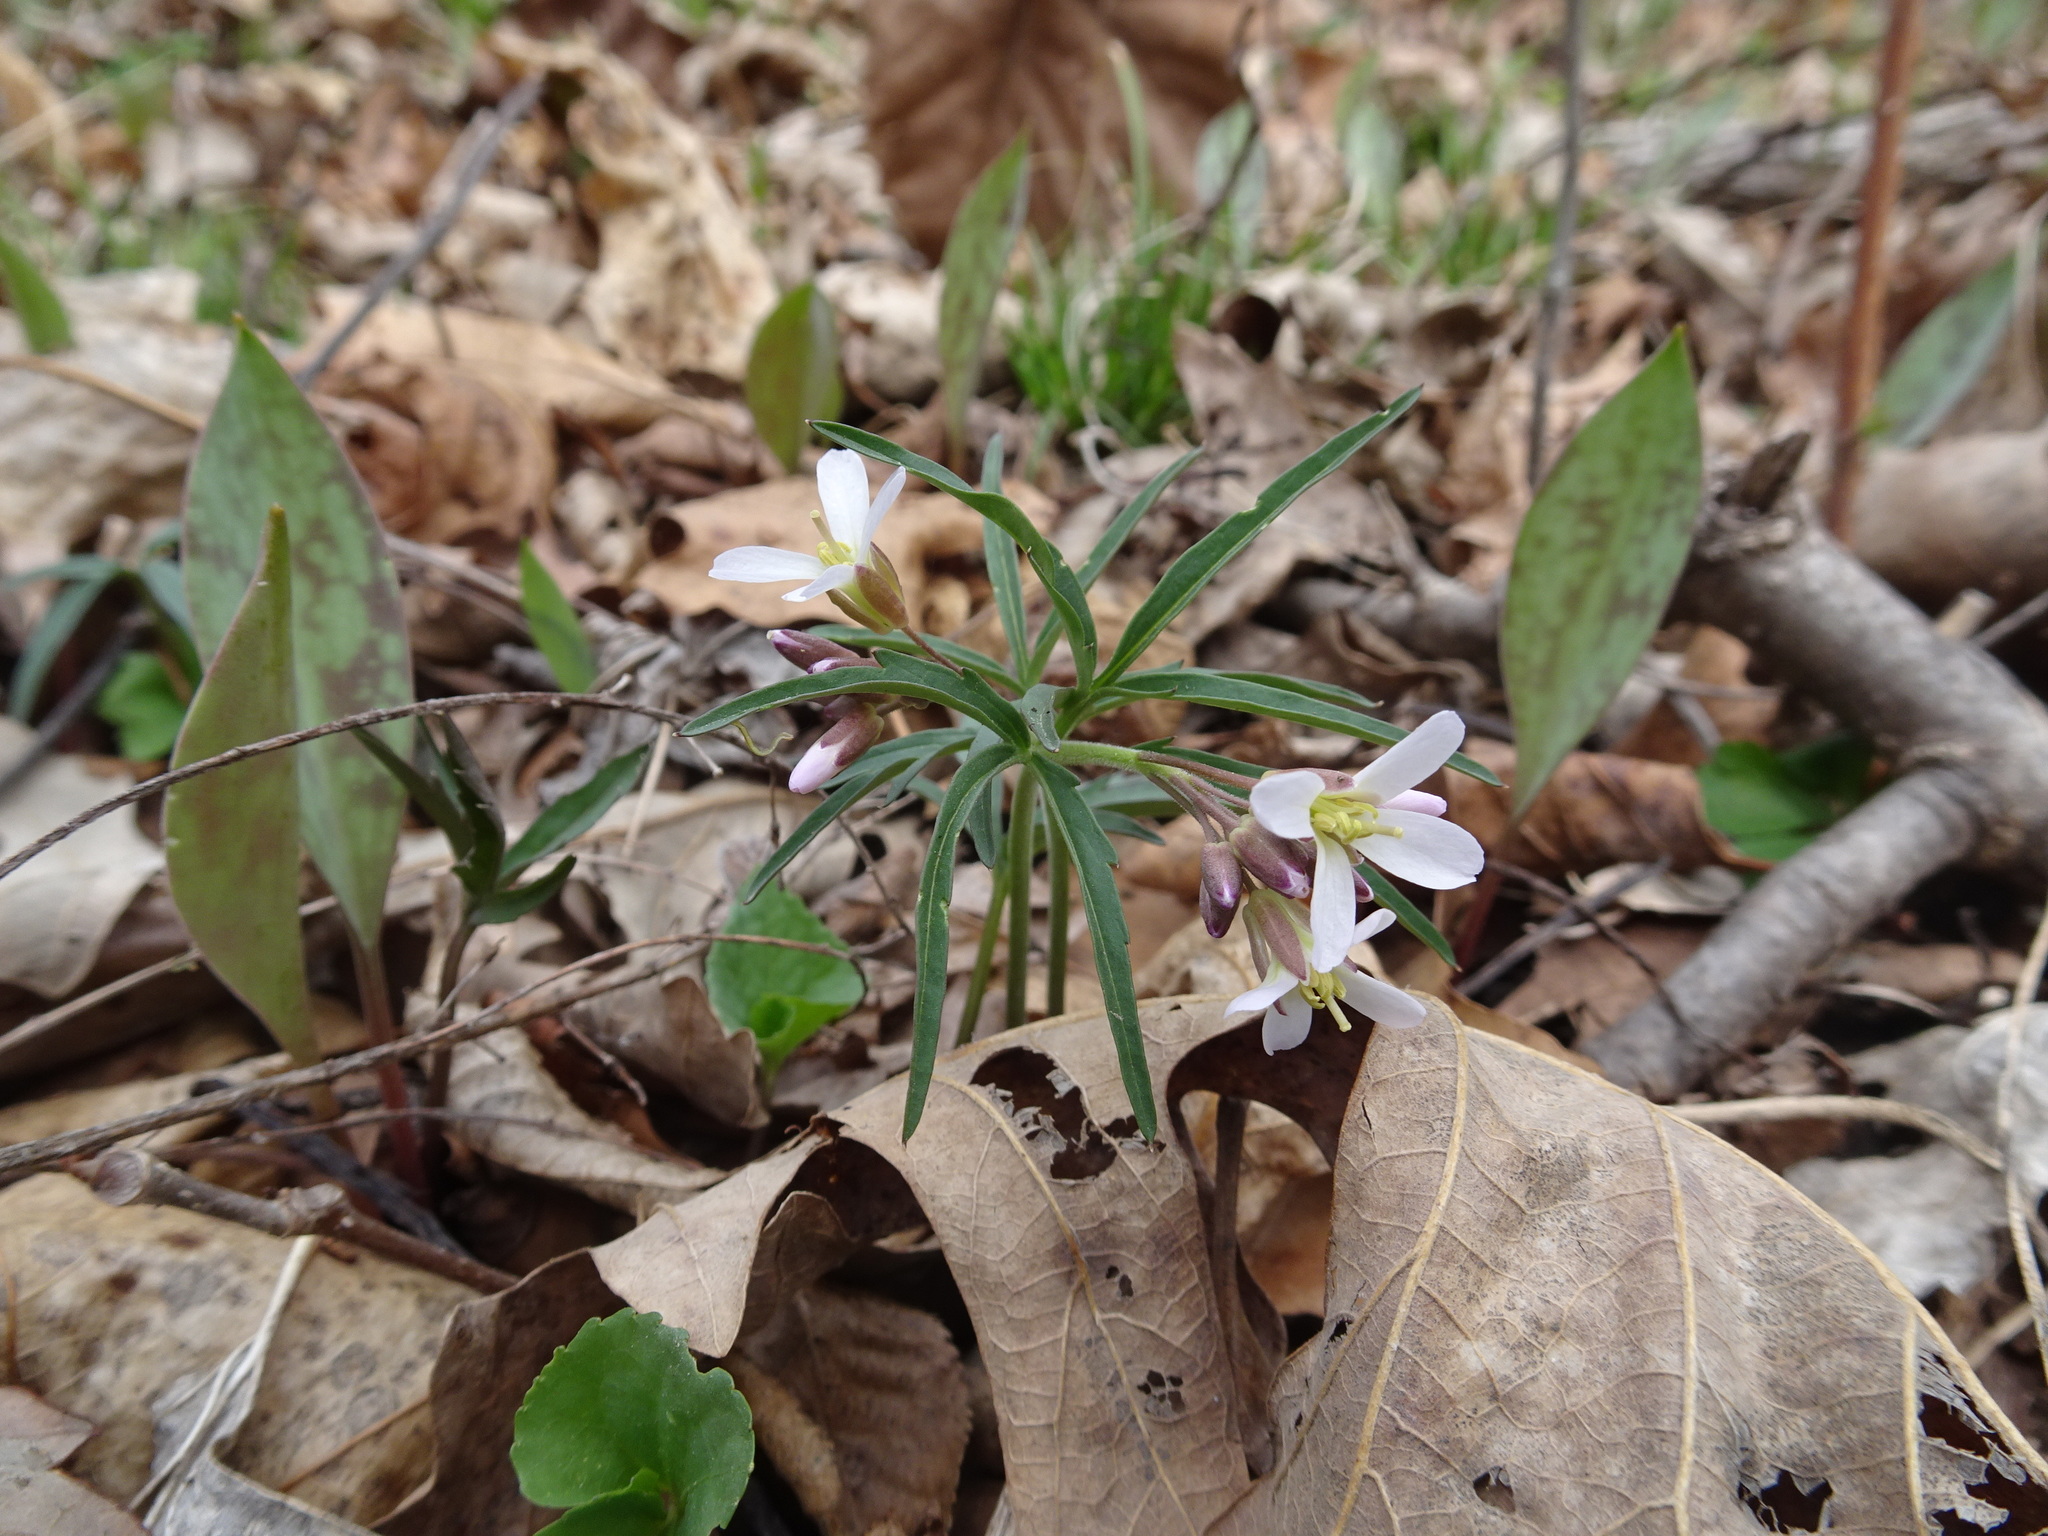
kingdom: Plantae
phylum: Tracheophyta
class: Magnoliopsida
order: Brassicales
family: Brassicaceae
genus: Cardamine
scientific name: Cardamine concatenata
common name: Cut-leaf toothcup
